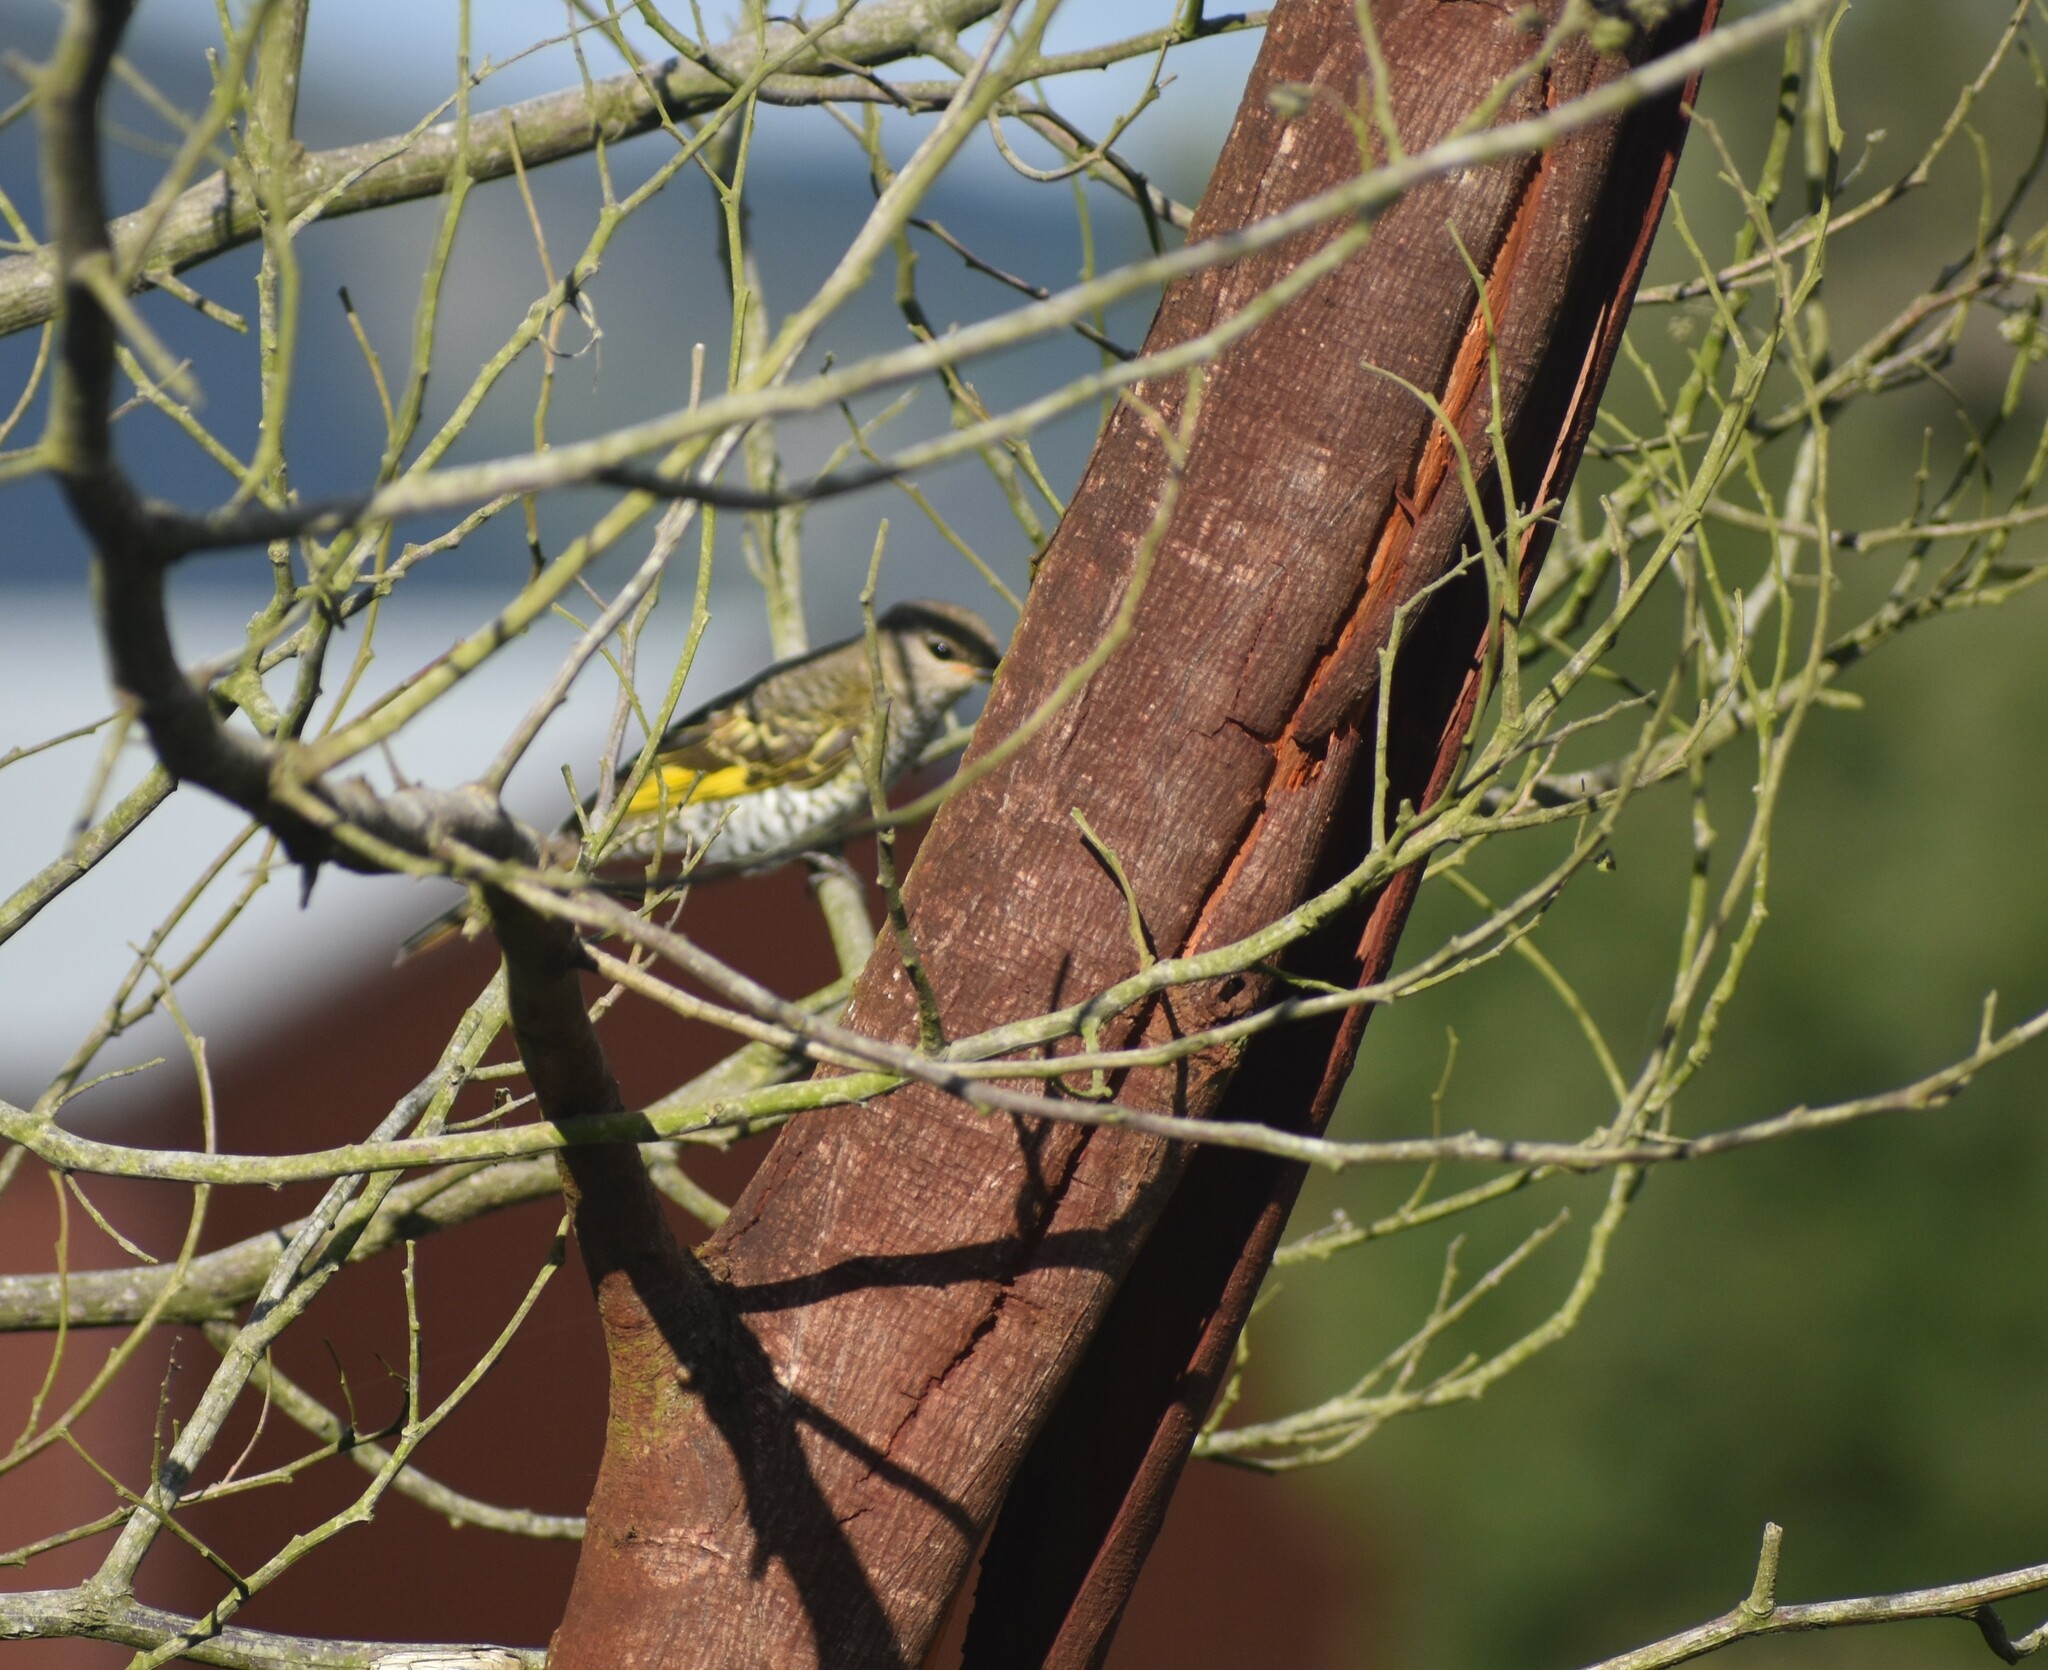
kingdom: Animalia
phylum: Chordata
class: Aves
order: Passeriformes
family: Campephagidae
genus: Campephaga
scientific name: Campephaga flava
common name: Black cuckooshrike
